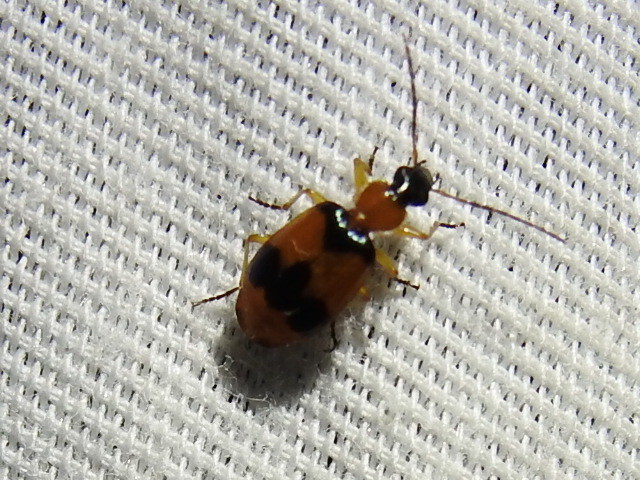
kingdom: Animalia
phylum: Arthropoda
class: Insecta
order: Coleoptera
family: Carabidae
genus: Lebia
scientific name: Lebia pulchella
